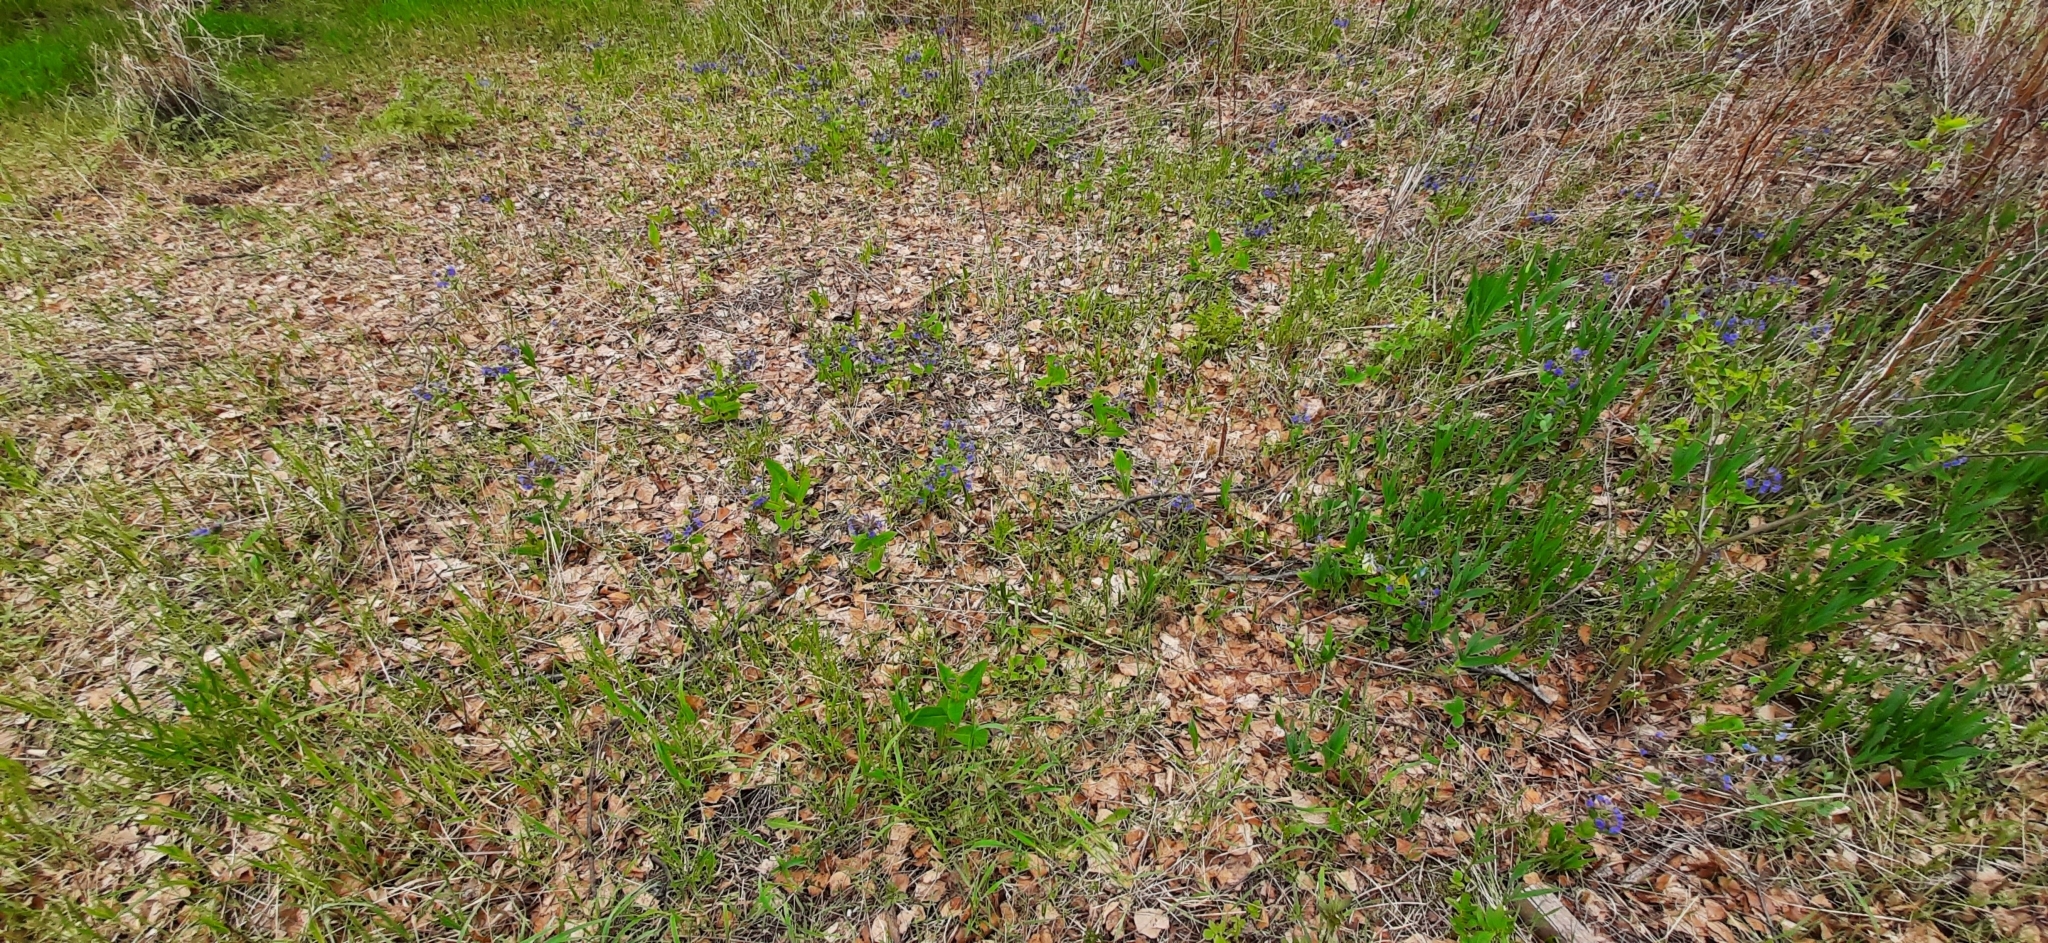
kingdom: Plantae
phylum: Tracheophyta
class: Magnoliopsida
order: Boraginales
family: Boraginaceae
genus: Pulmonaria
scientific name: Pulmonaria mollis
